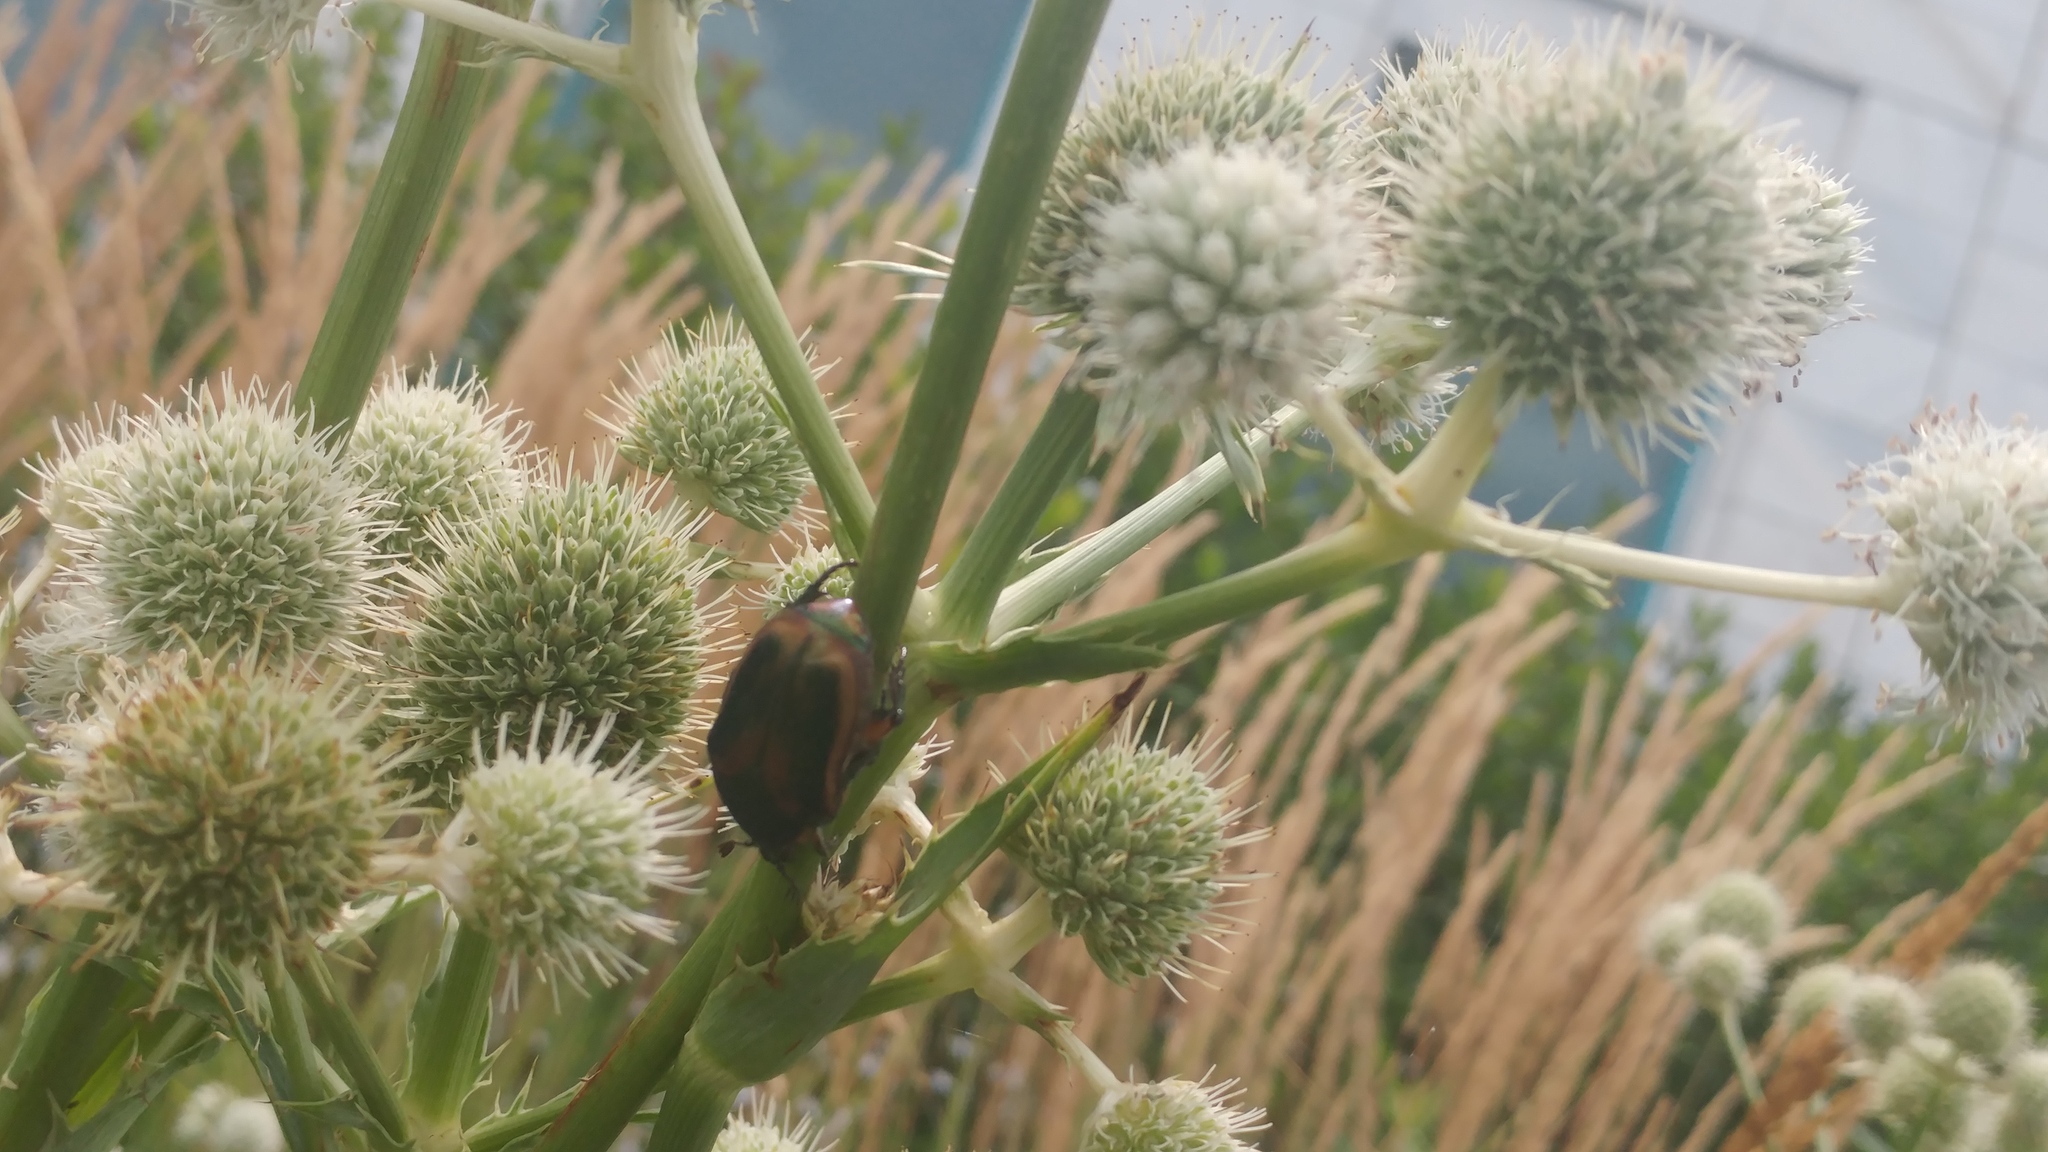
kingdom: Animalia
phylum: Arthropoda
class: Insecta
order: Coleoptera
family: Scarabaeidae
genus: Cotinis
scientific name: Cotinis nitida
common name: Common green june beetle
